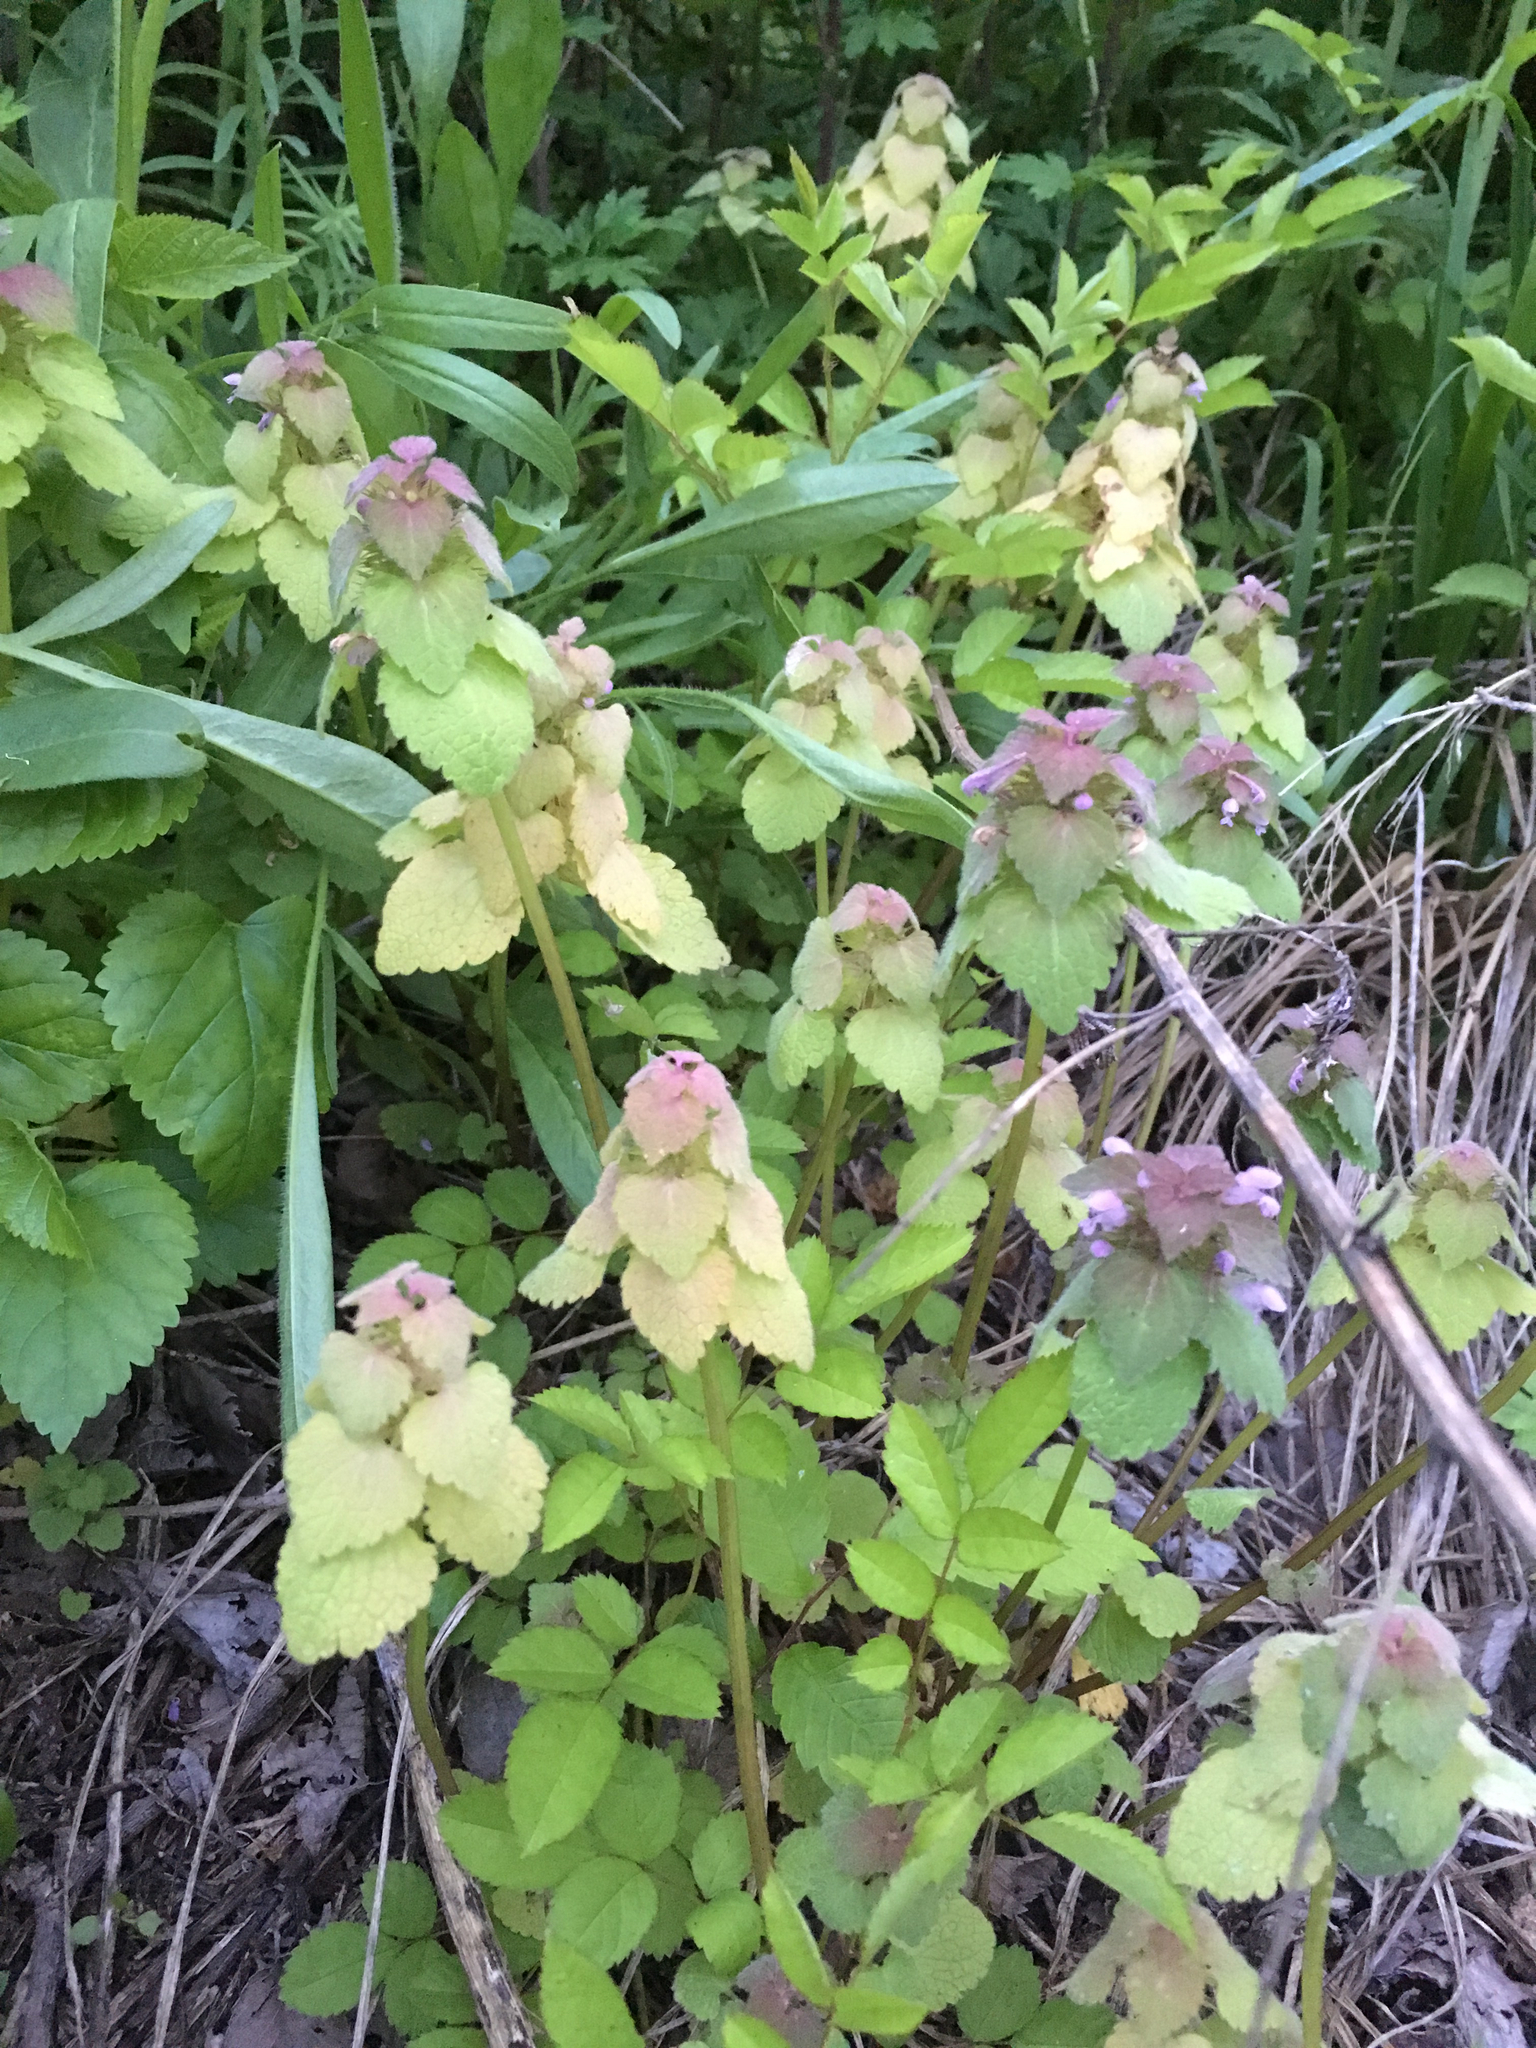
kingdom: Plantae
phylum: Tracheophyta
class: Magnoliopsida
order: Lamiales
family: Lamiaceae
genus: Lamium
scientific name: Lamium purpureum
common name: Red dead-nettle
